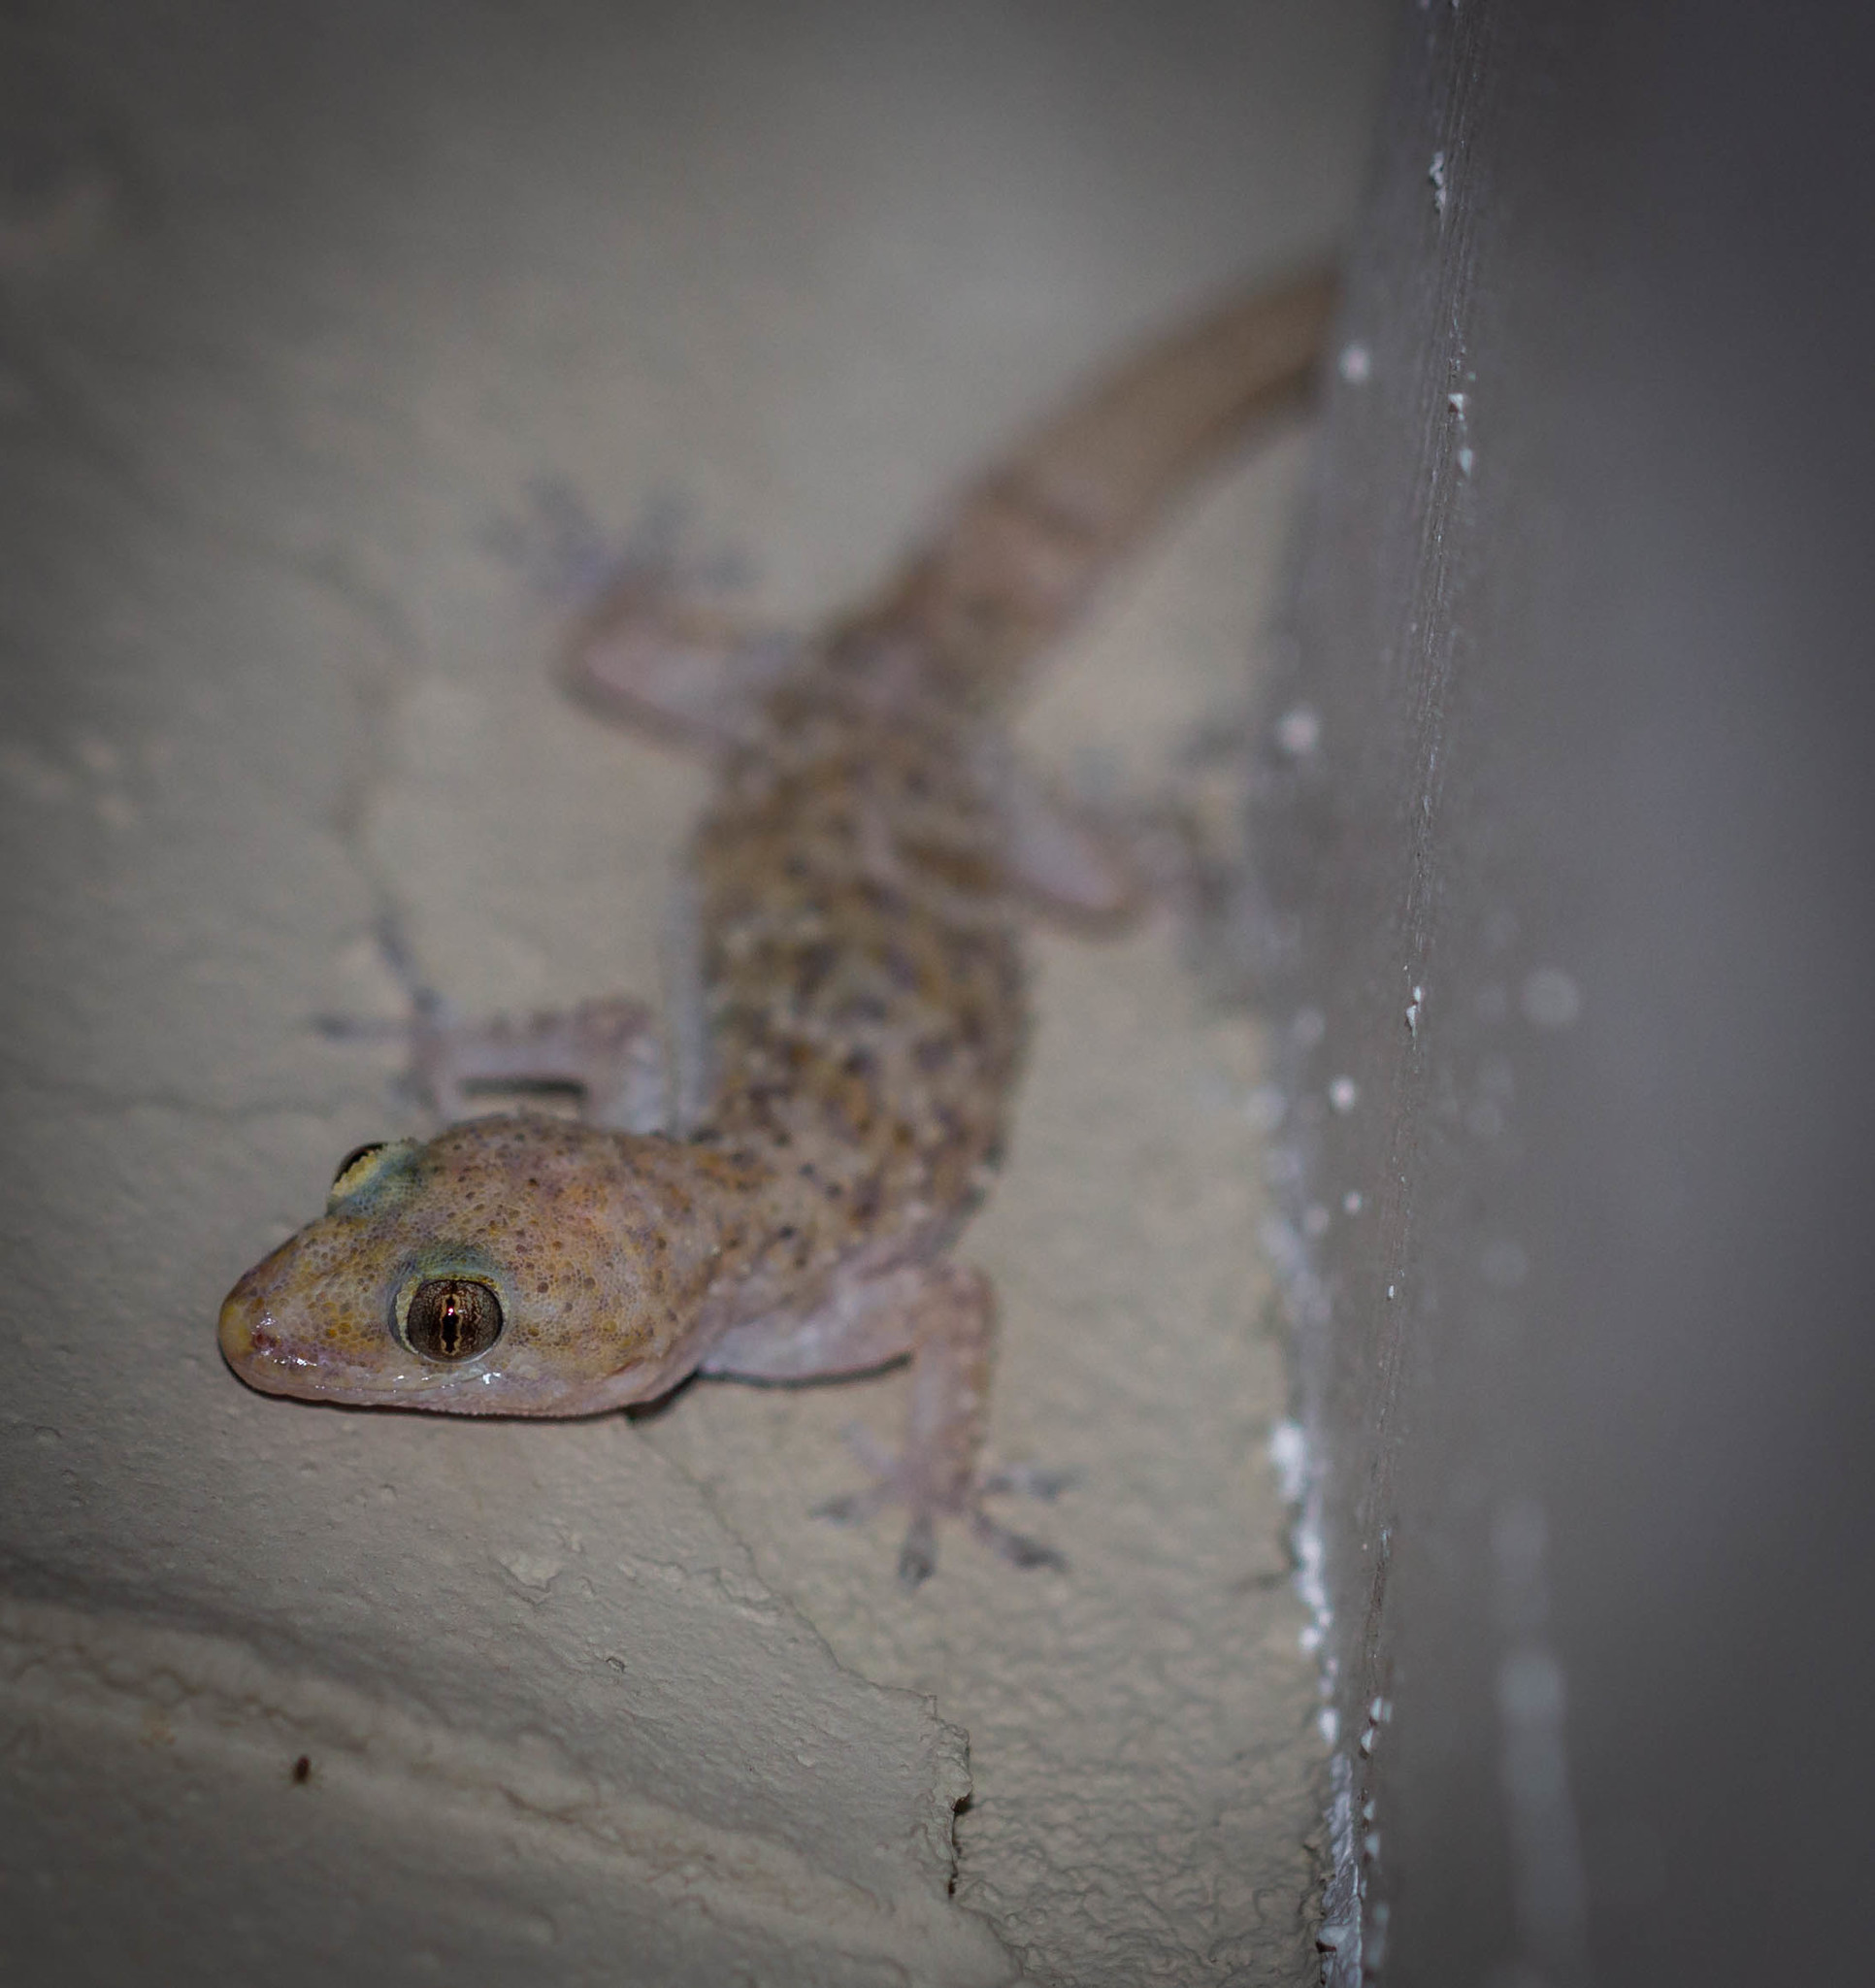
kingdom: Animalia
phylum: Chordata
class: Squamata
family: Gekkonidae
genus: Hemidactylus
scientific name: Hemidactylus turcicus
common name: Turkish gecko
